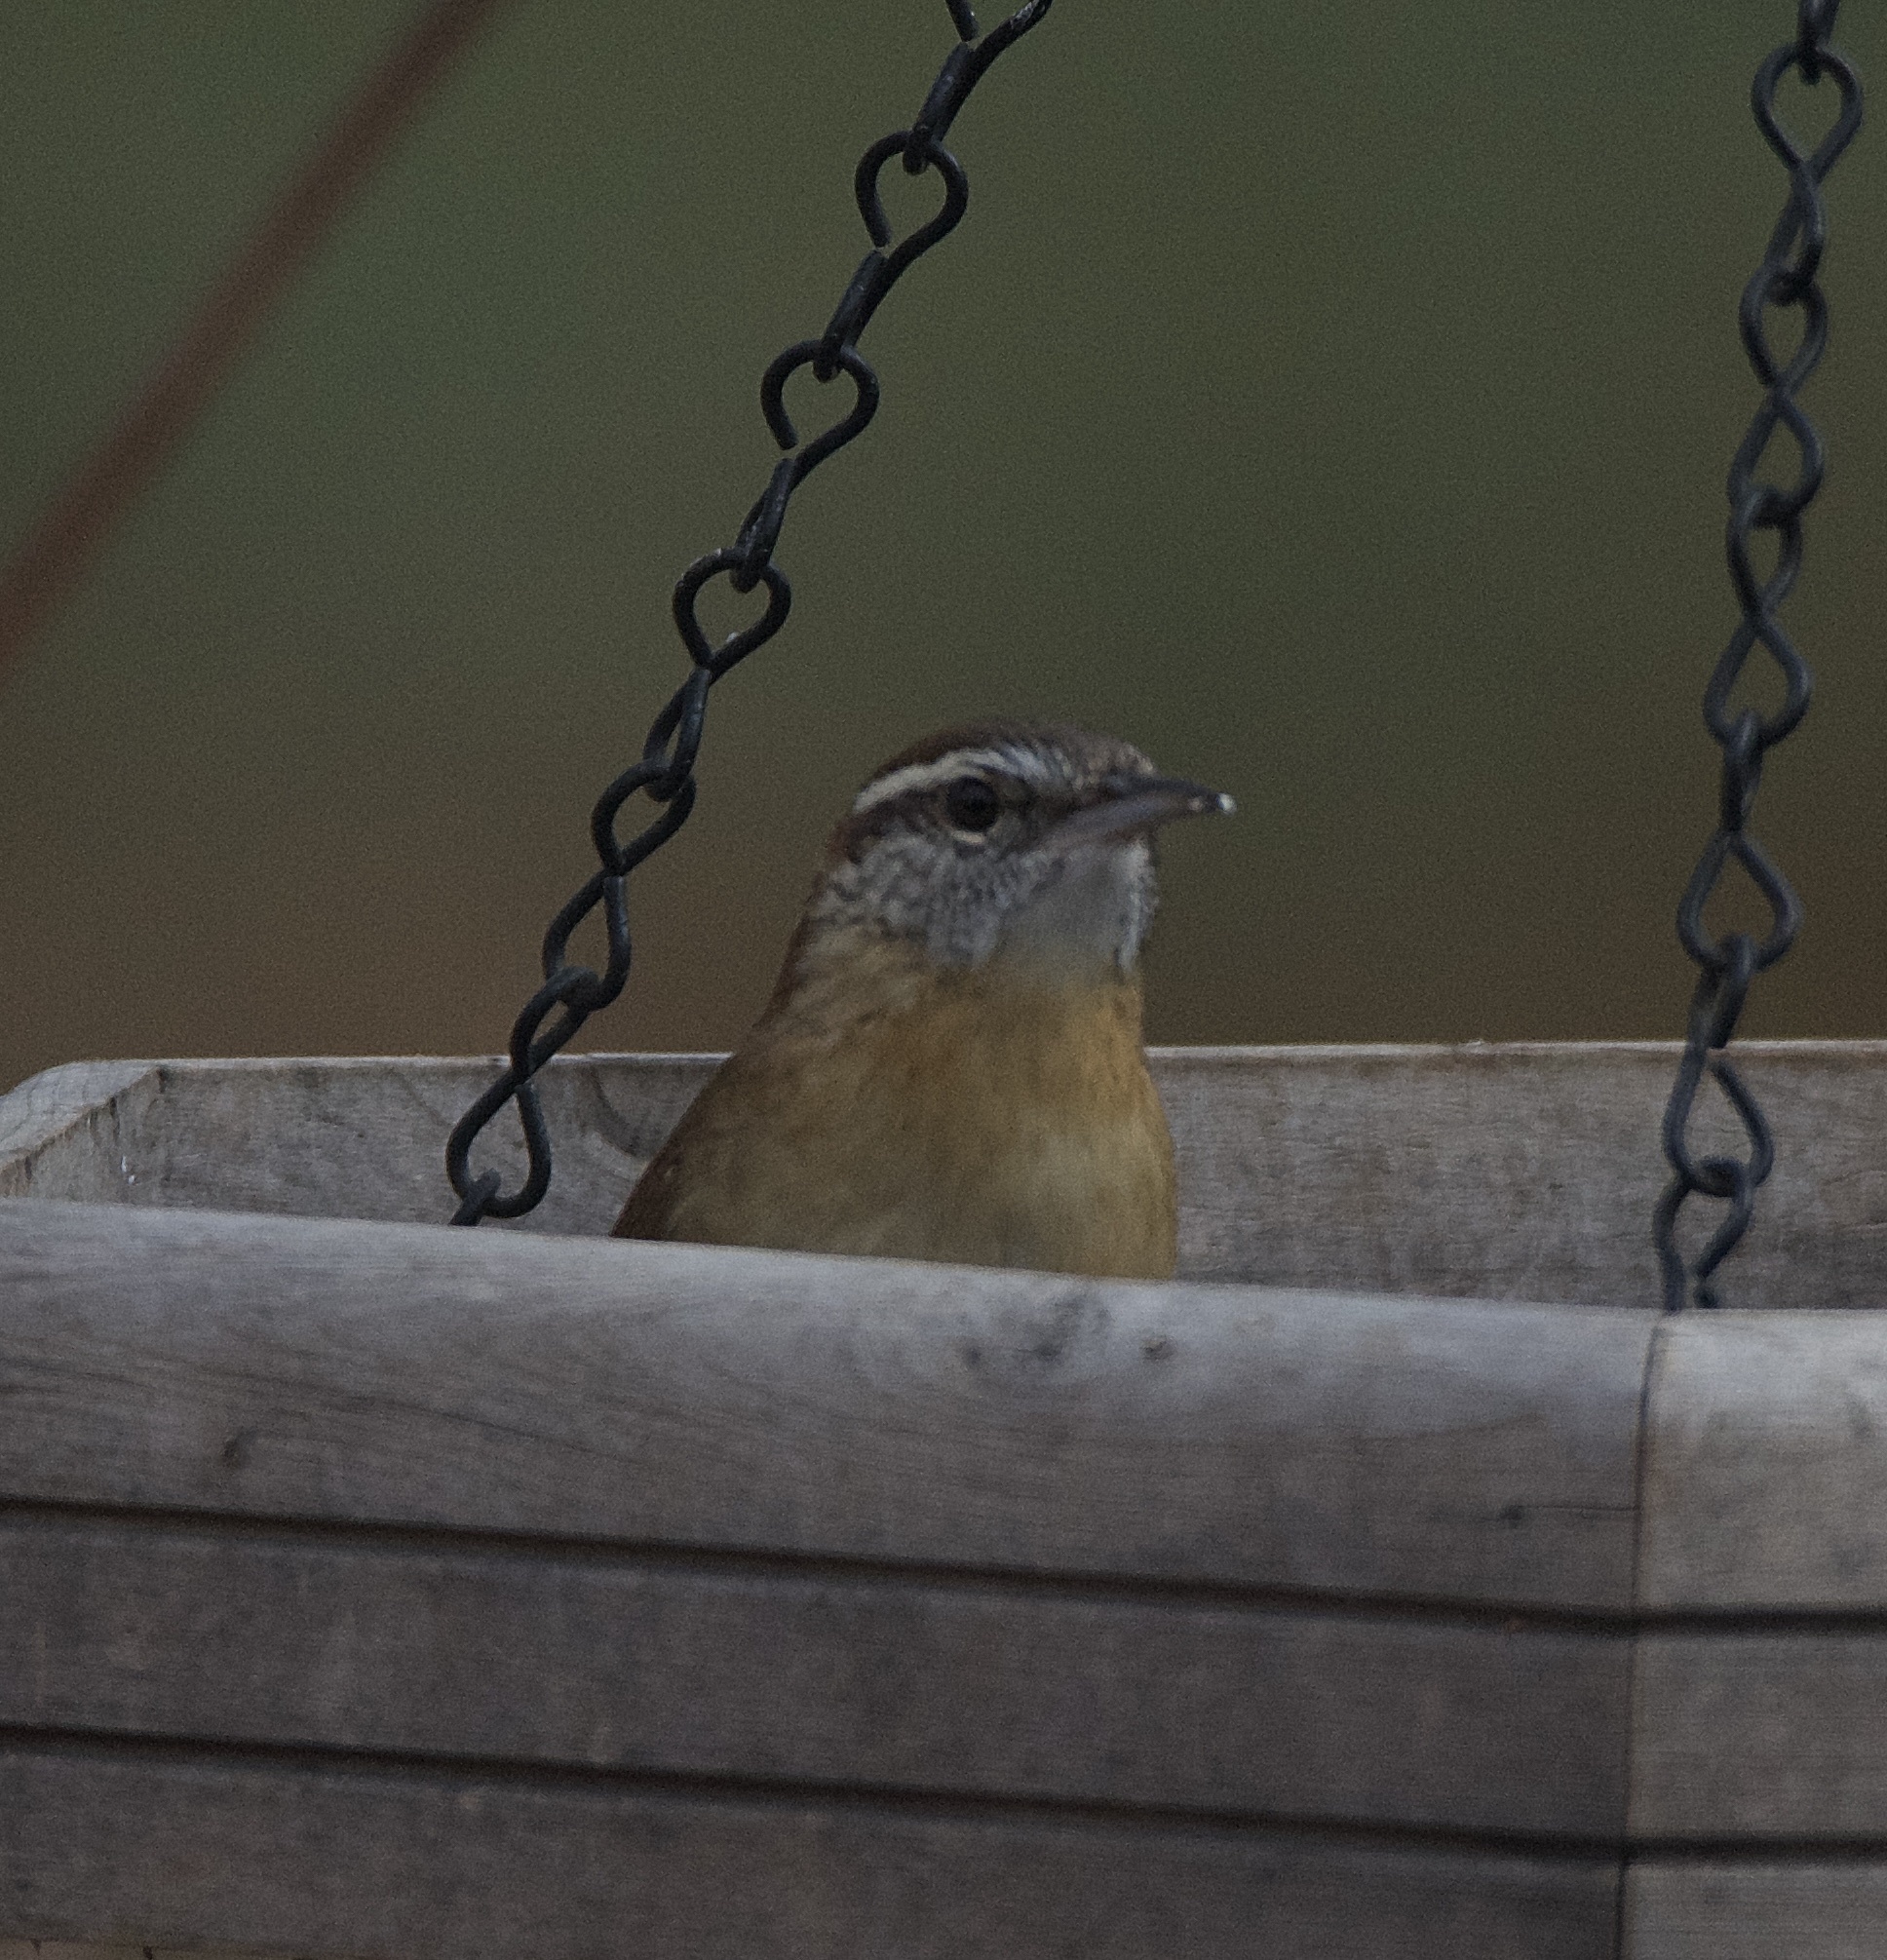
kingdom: Animalia
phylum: Chordata
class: Aves
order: Passeriformes
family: Troglodytidae
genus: Thryothorus
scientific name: Thryothorus ludovicianus
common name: Carolina wren
